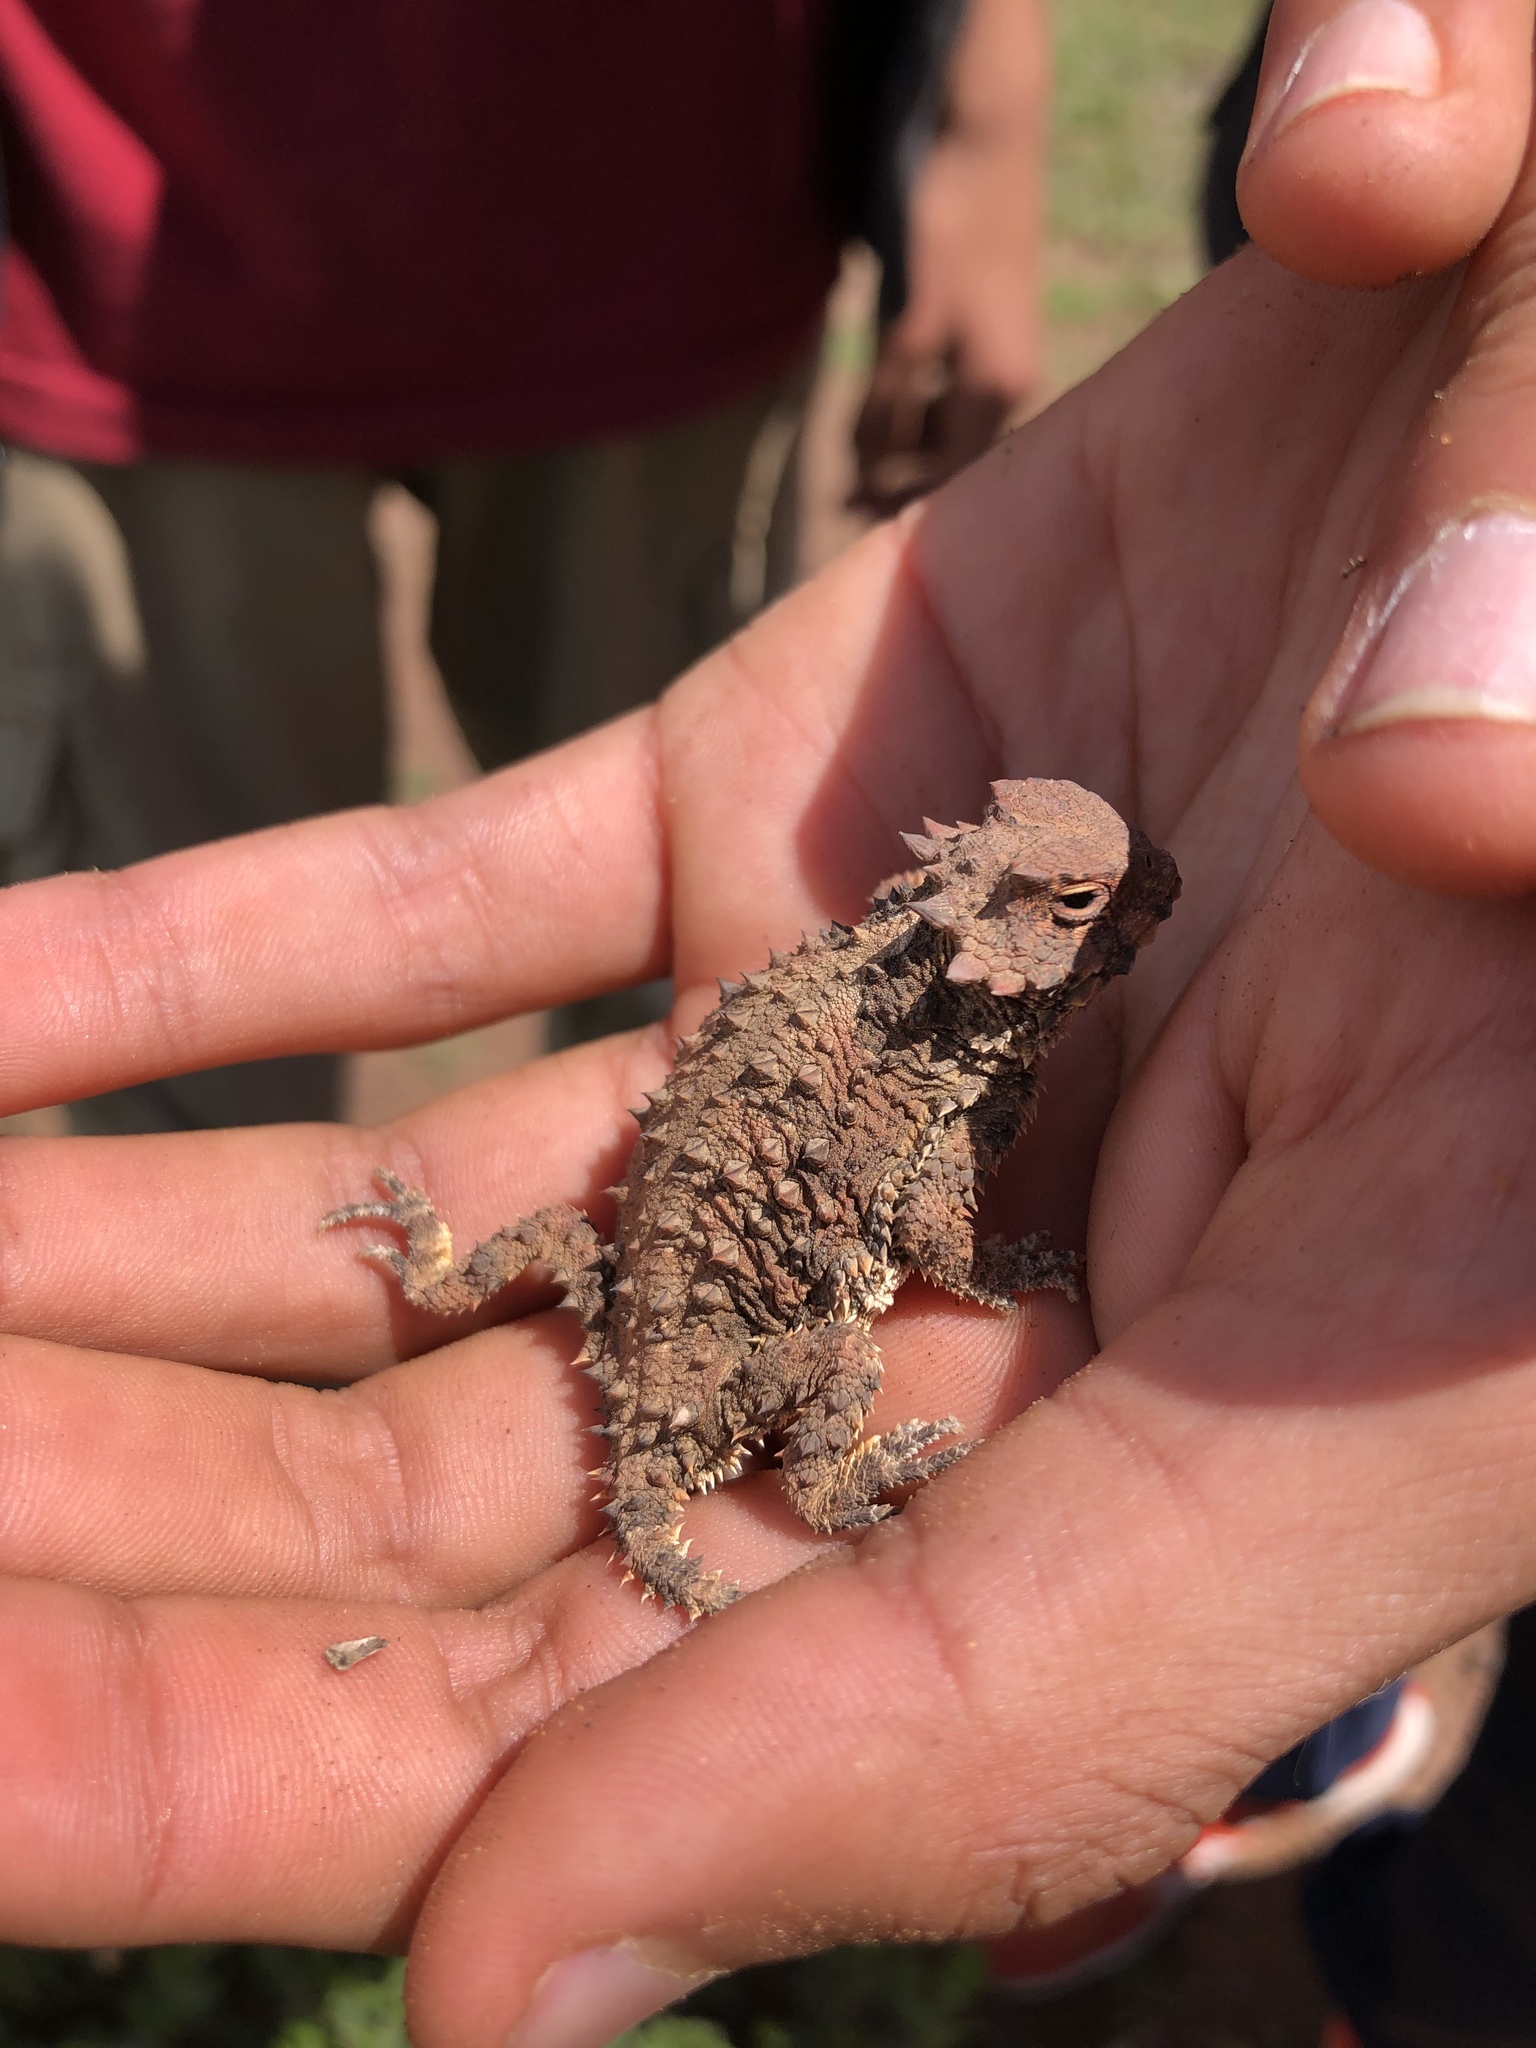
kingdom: Animalia
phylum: Chordata
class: Squamata
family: Phrynosomatidae
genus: Phrynosoma
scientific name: Phrynosoma blainvillii
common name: San diego horned lizard
